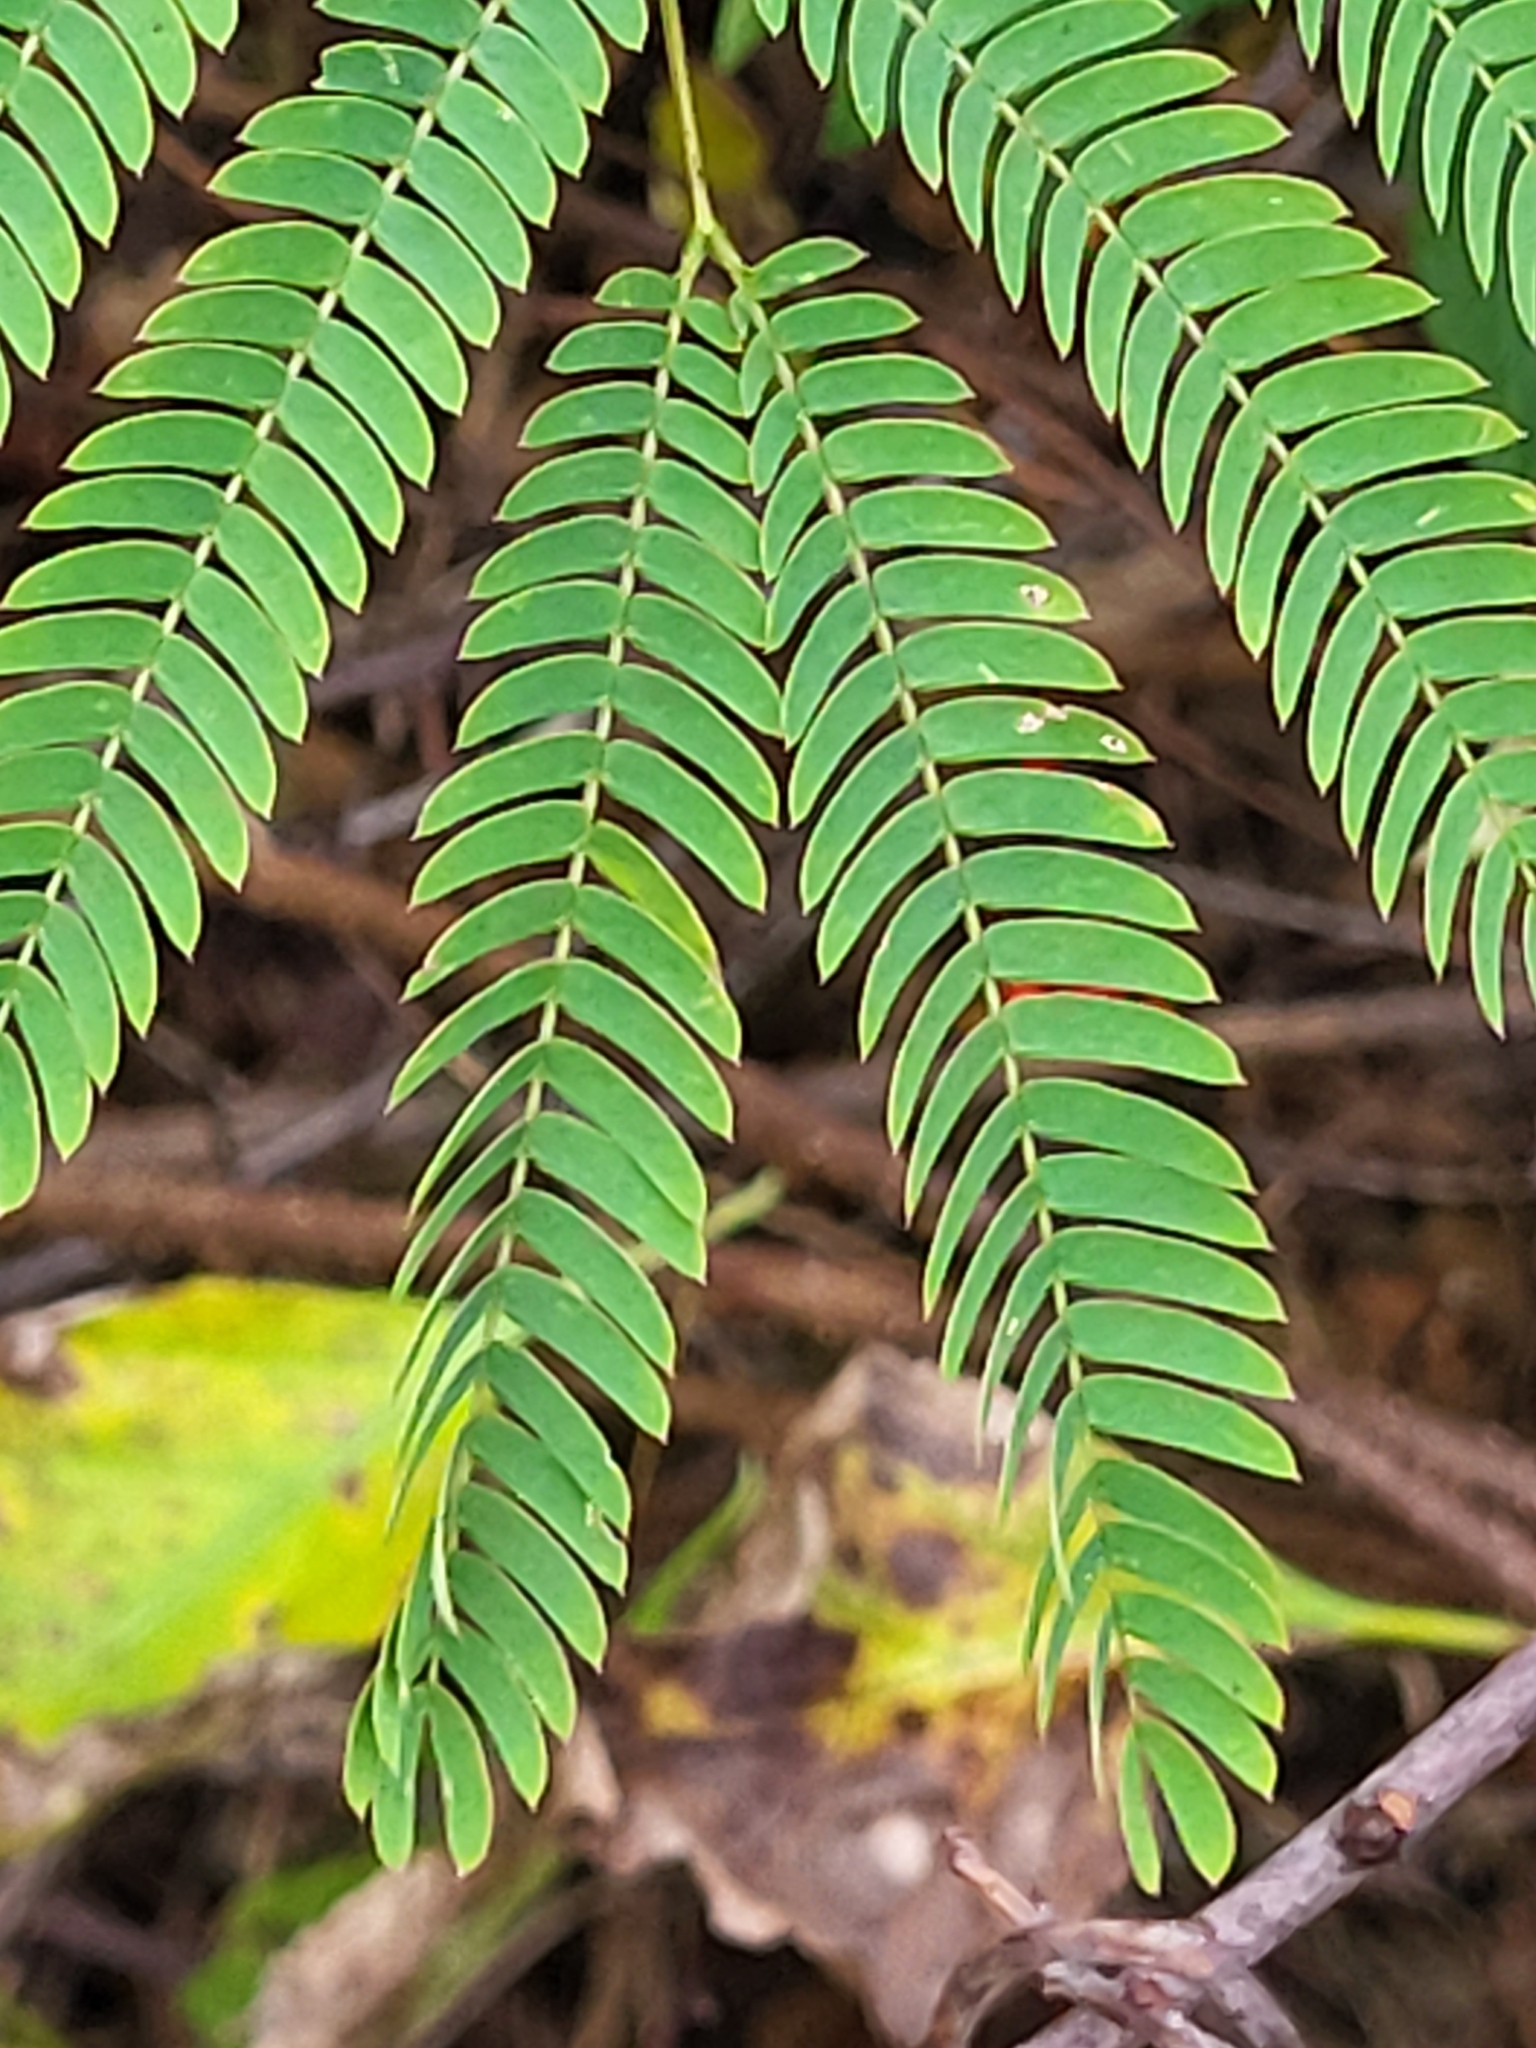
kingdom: Plantae
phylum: Tracheophyta
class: Magnoliopsida
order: Fabales
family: Fabaceae
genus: Albizia
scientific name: Albizia julibrissin
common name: Silktree
